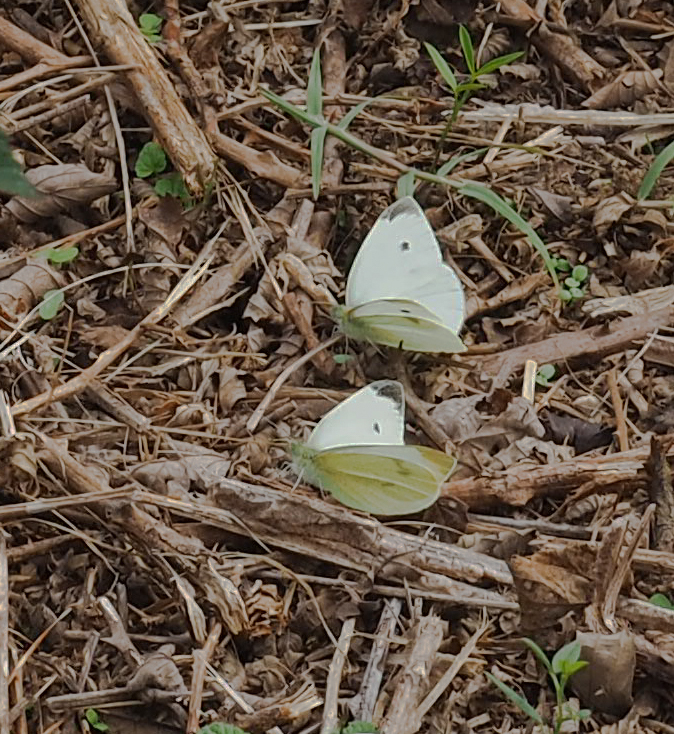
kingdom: Animalia
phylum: Arthropoda
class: Insecta
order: Lepidoptera
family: Pieridae
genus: Pieris
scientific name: Pieris rapae
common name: Small white
